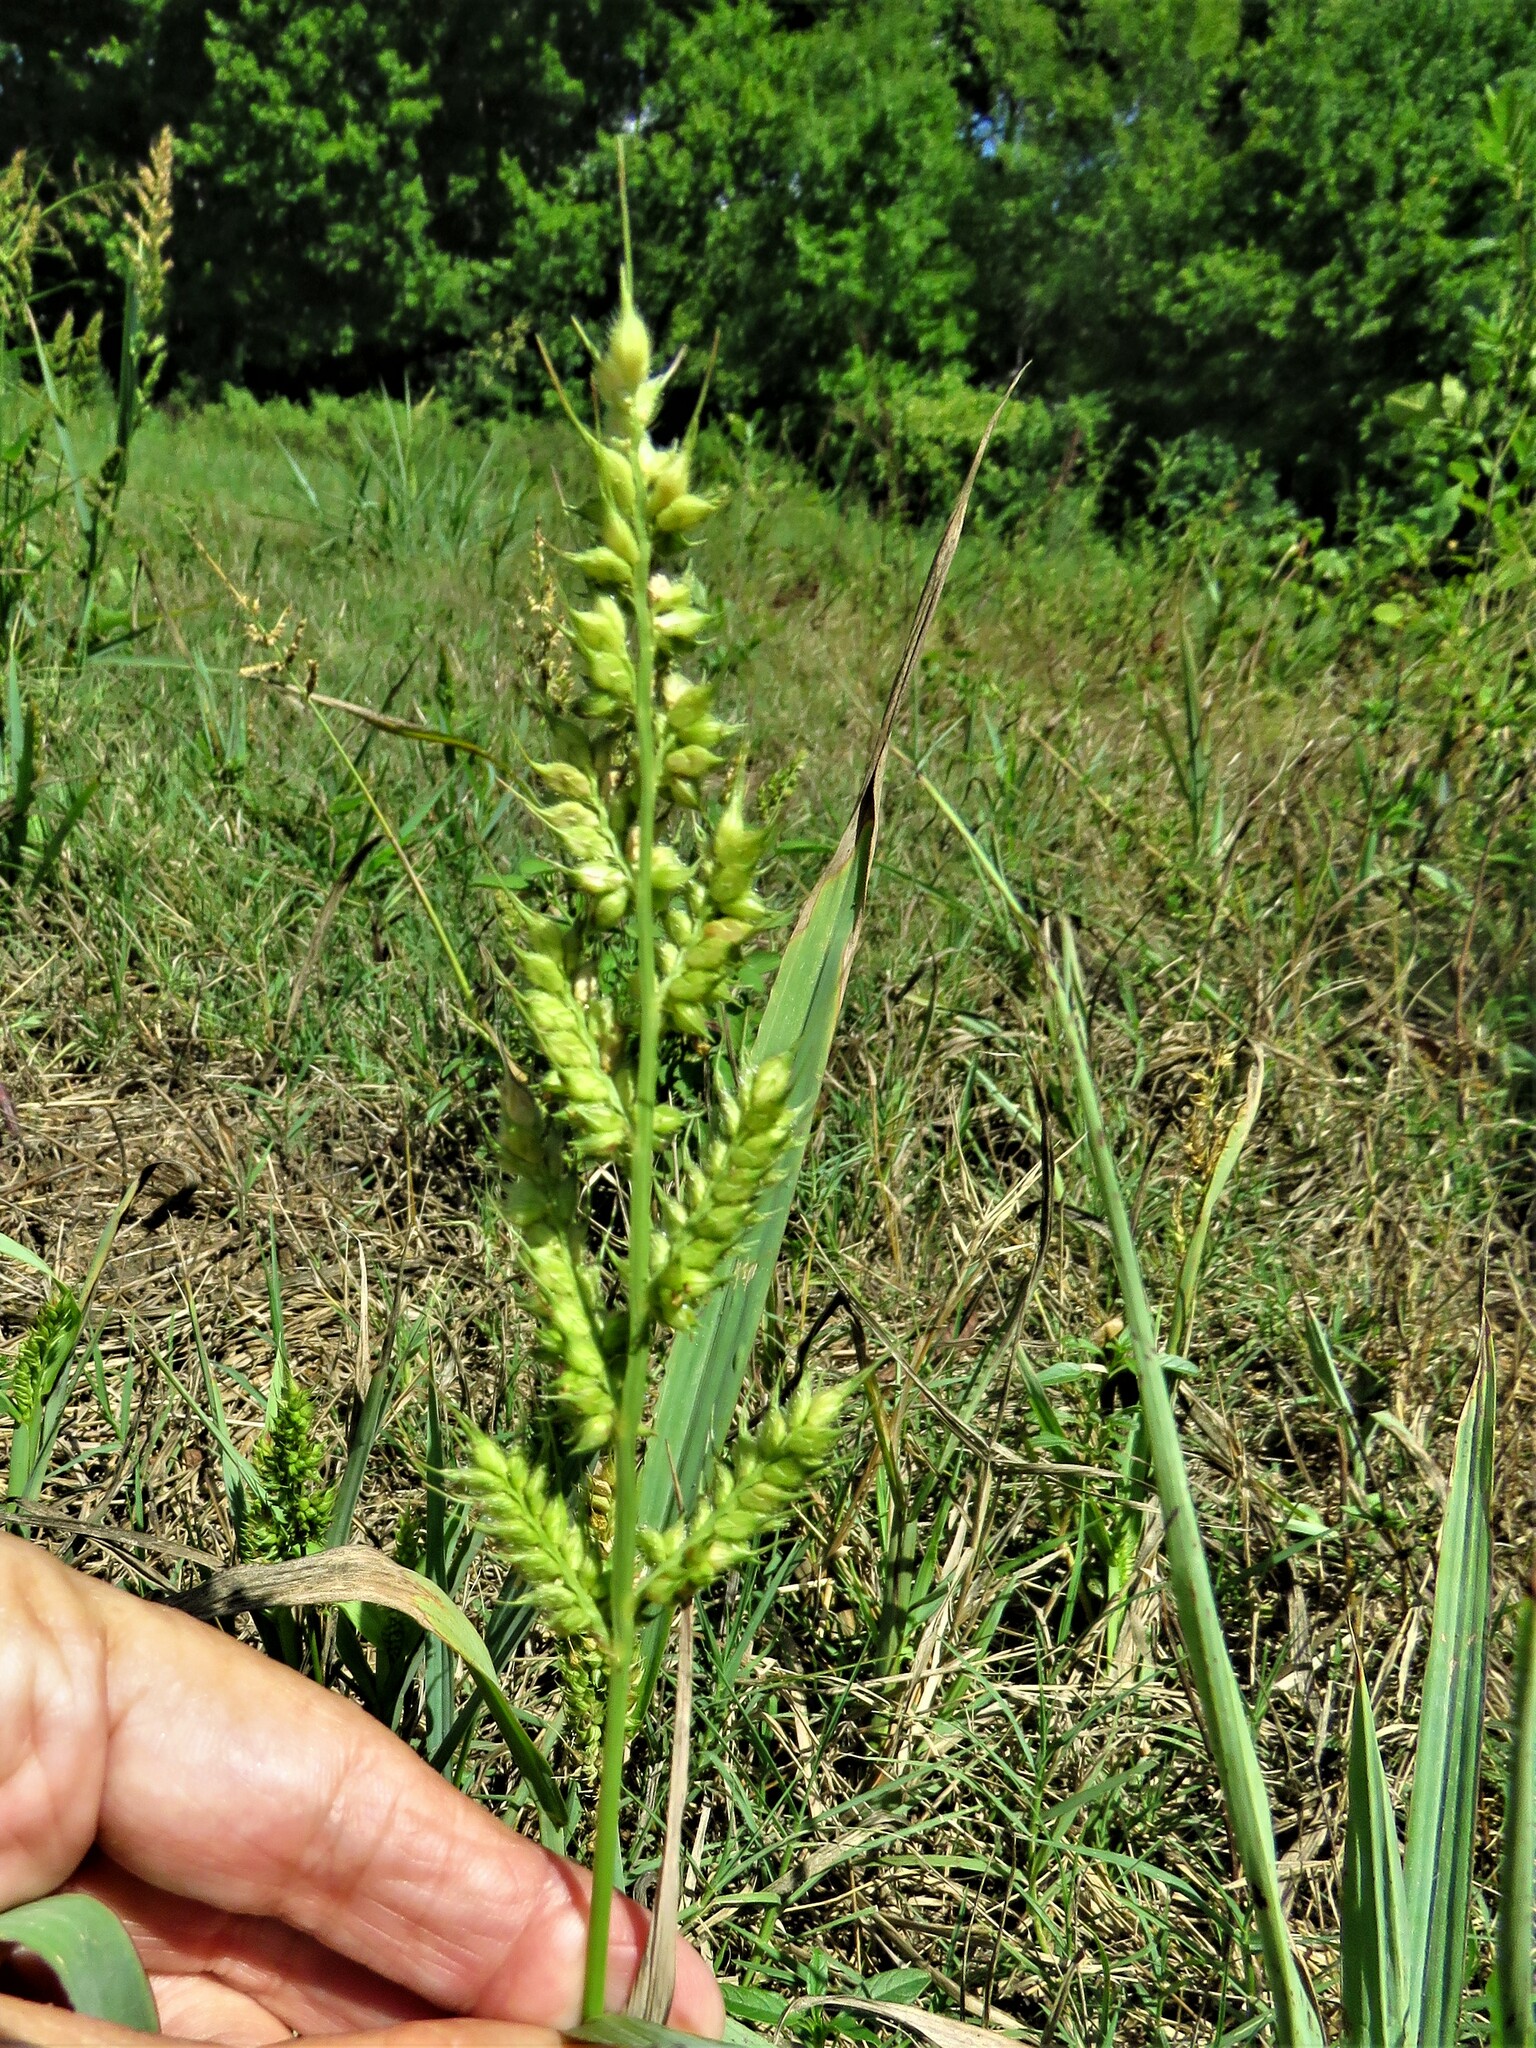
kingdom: Plantae
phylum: Tracheophyta
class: Liliopsida
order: Poales
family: Poaceae
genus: Echinochloa
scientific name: Echinochloa crus-galli
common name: Cockspur
